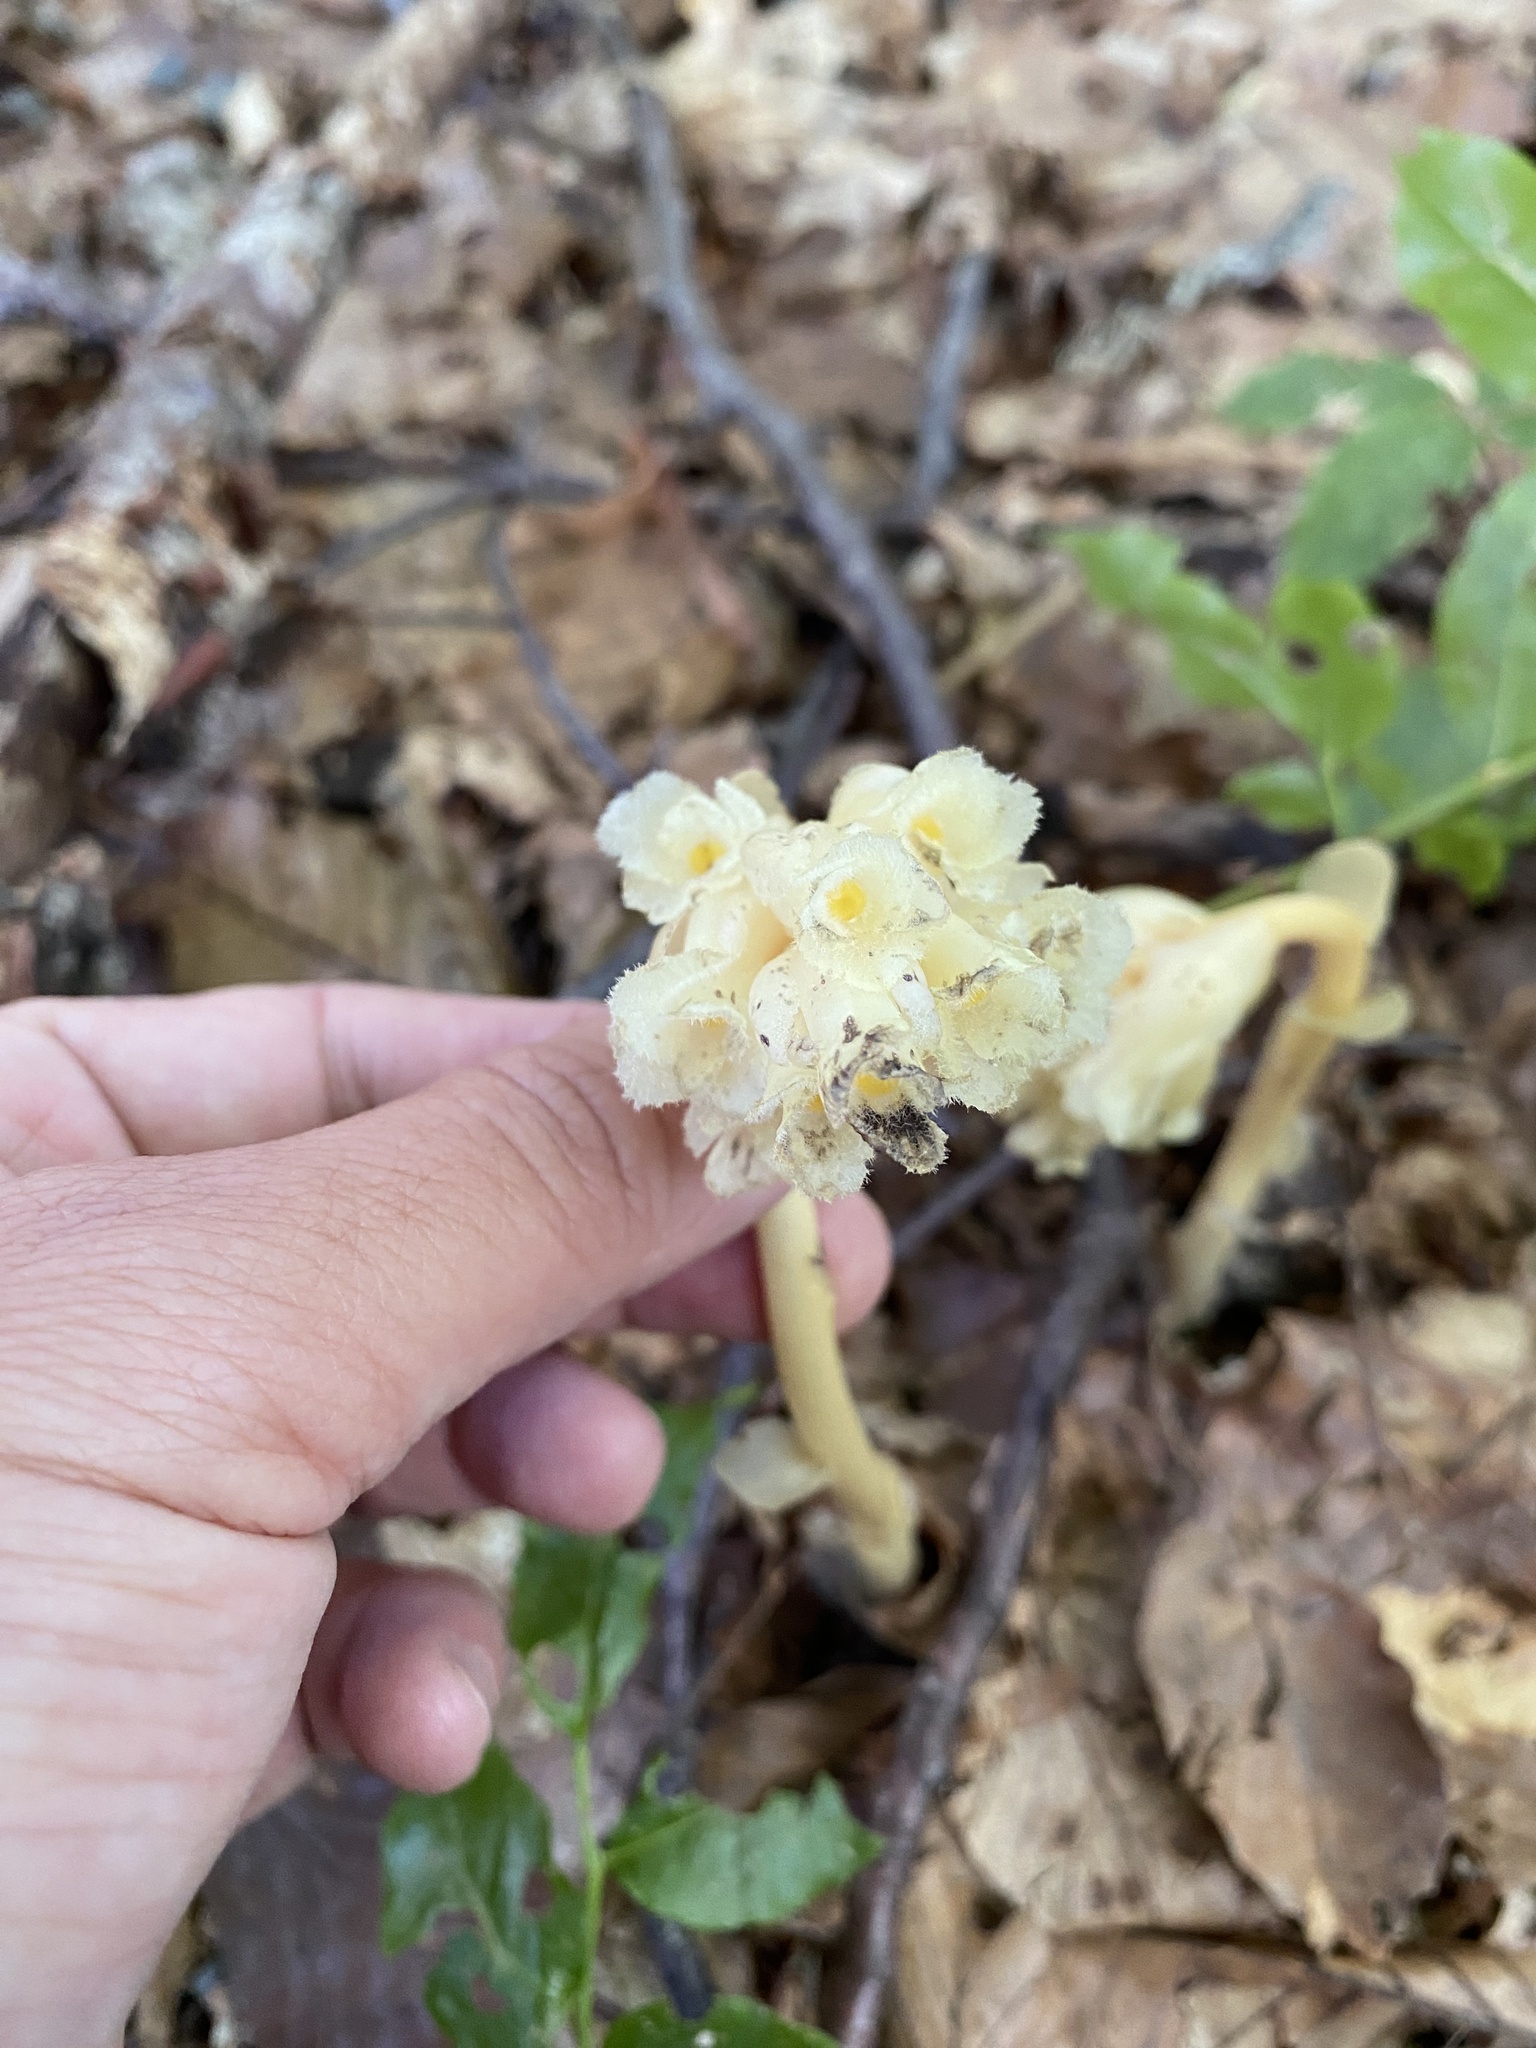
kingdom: Plantae
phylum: Tracheophyta
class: Magnoliopsida
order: Ericales
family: Ericaceae
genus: Hypopitys
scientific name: Hypopitys monotropa
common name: Yellow bird's-nest
